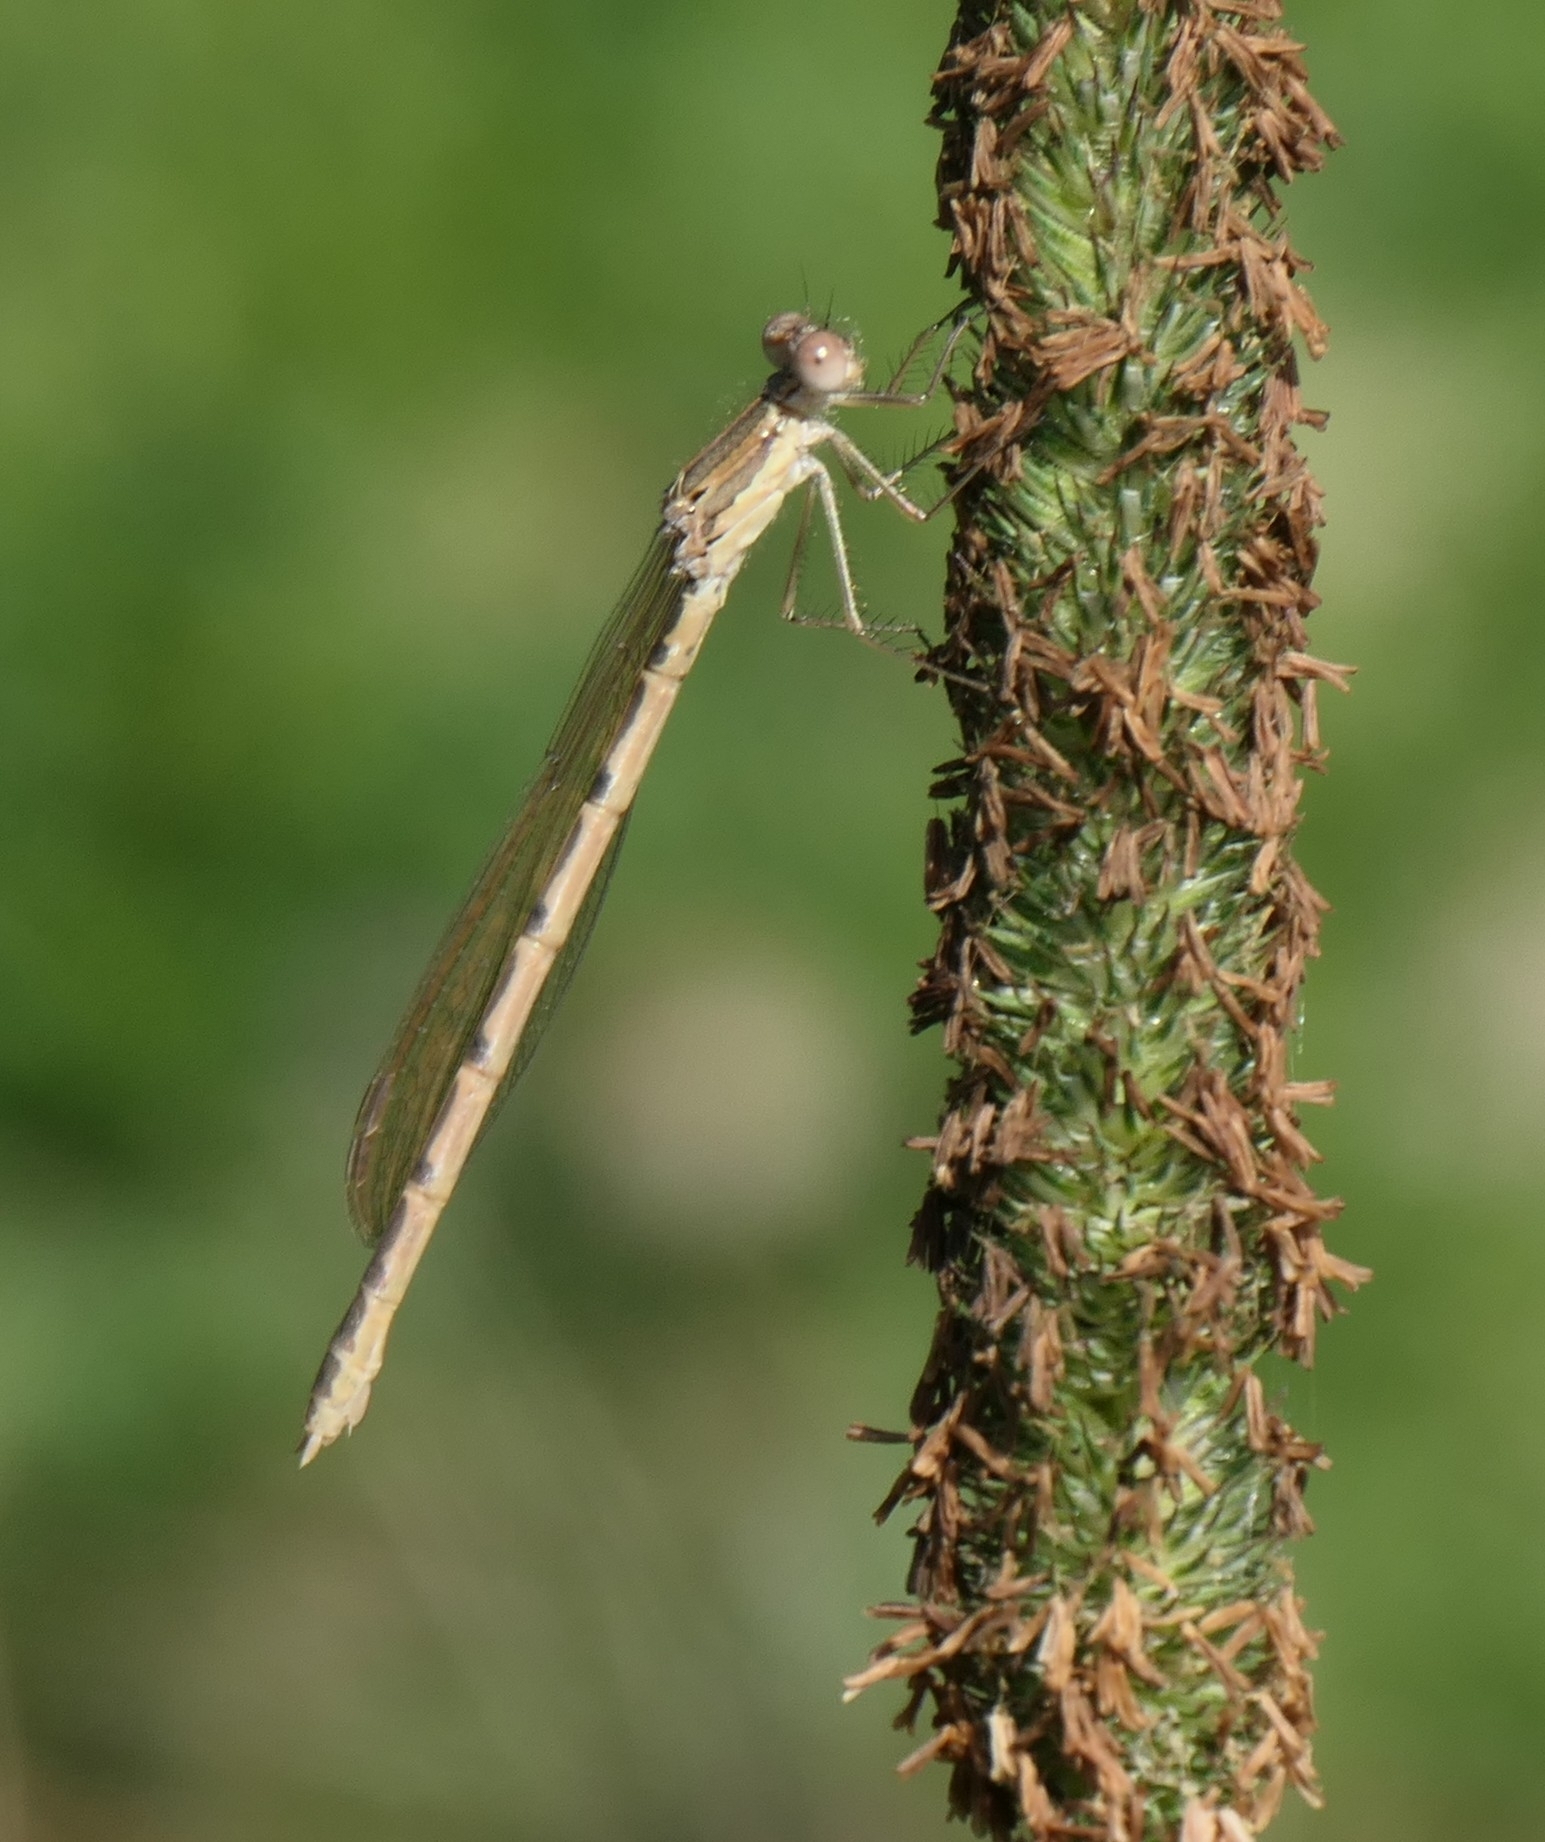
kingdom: Animalia
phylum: Arthropoda
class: Insecta
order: Odonata
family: Lestidae
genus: Sympecma
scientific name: Sympecma fusca
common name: Common winter damsel
